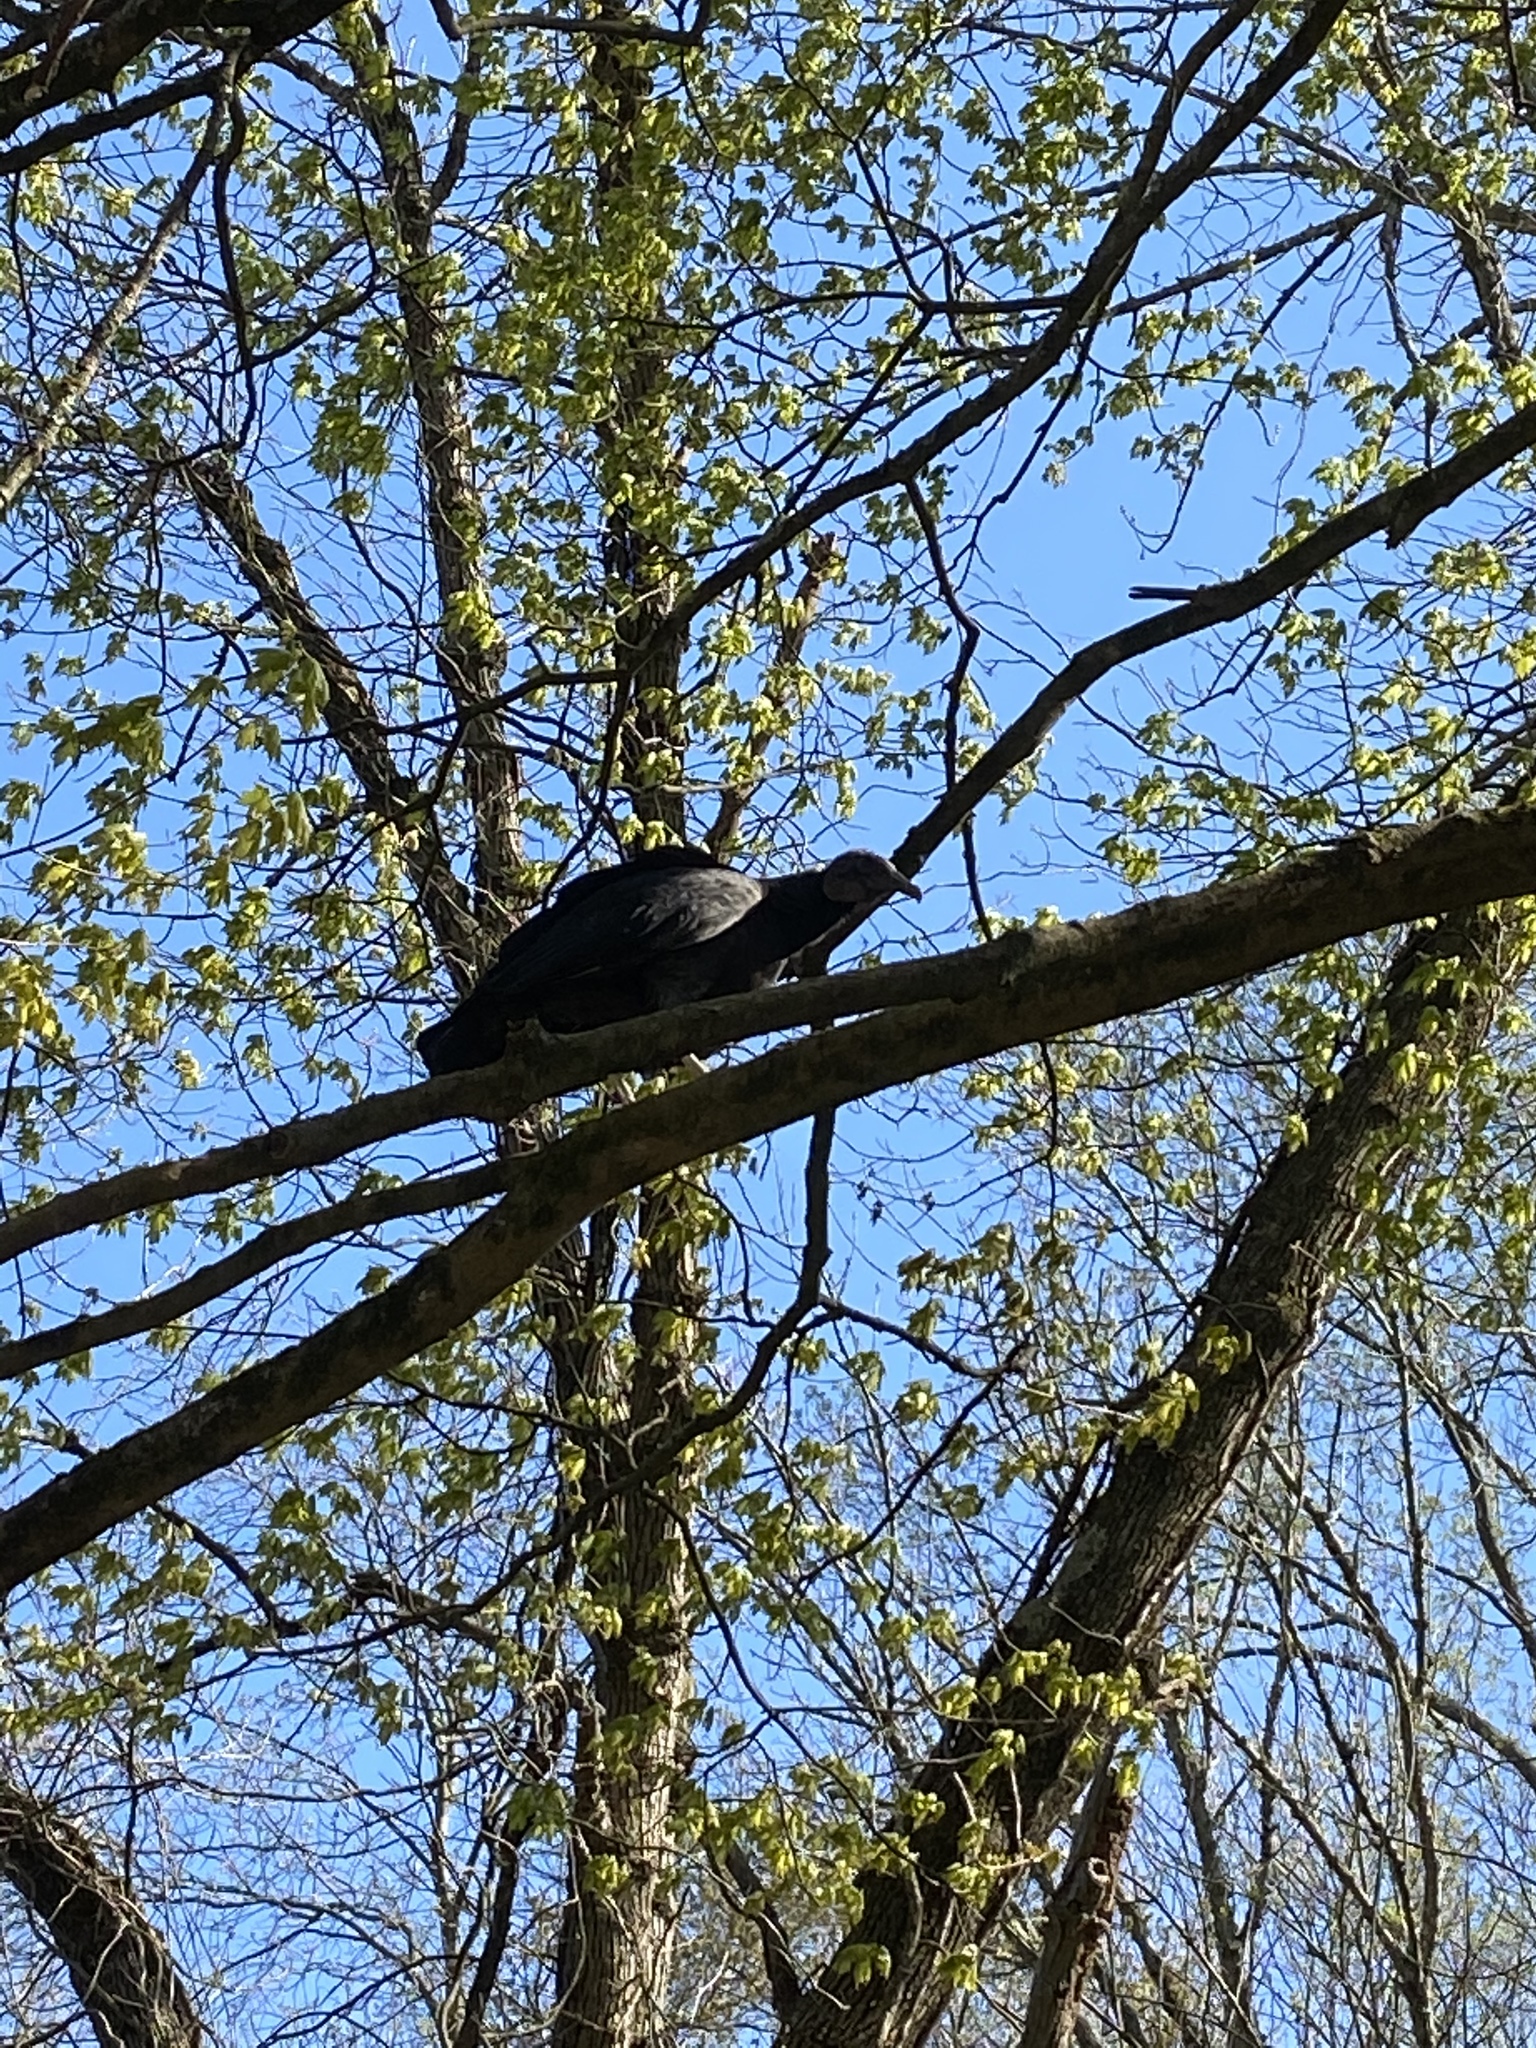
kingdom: Animalia
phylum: Chordata
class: Aves
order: Accipitriformes
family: Cathartidae
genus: Coragyps
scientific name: Coragyps atratus
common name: Black vulture
